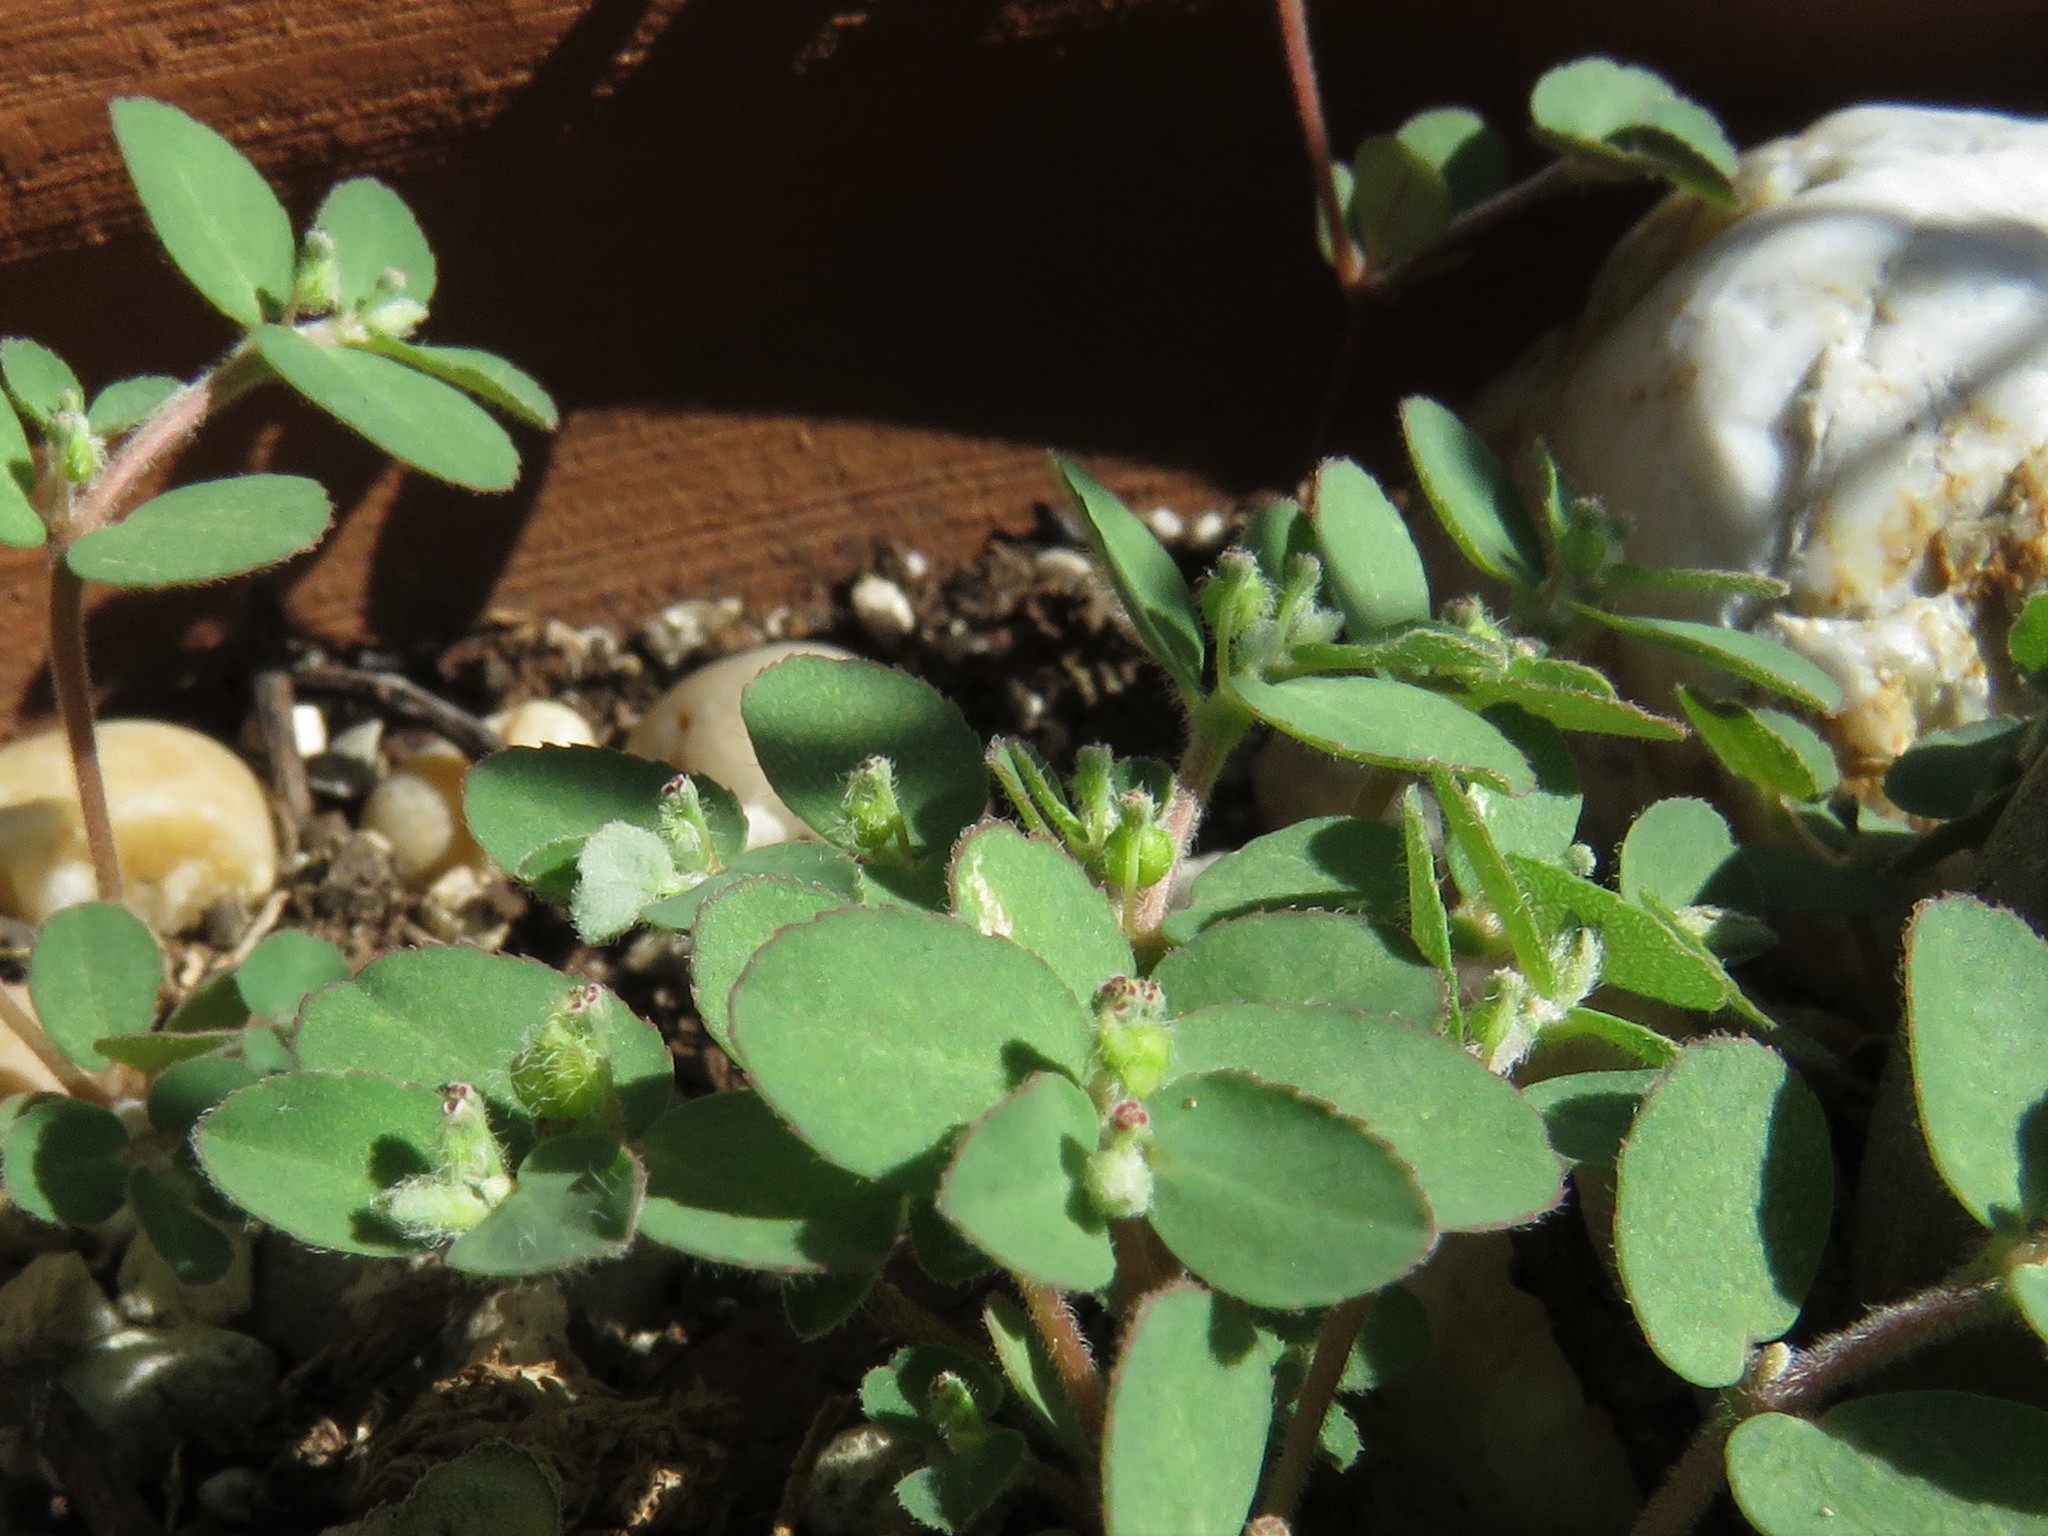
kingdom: Plantae
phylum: Tracheophyta
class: Magnoliopsida
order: Malpighiales
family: Euphorbiaceae
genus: Euphorbia
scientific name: Euphorbia prostrata
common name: Prostrate sandmat
